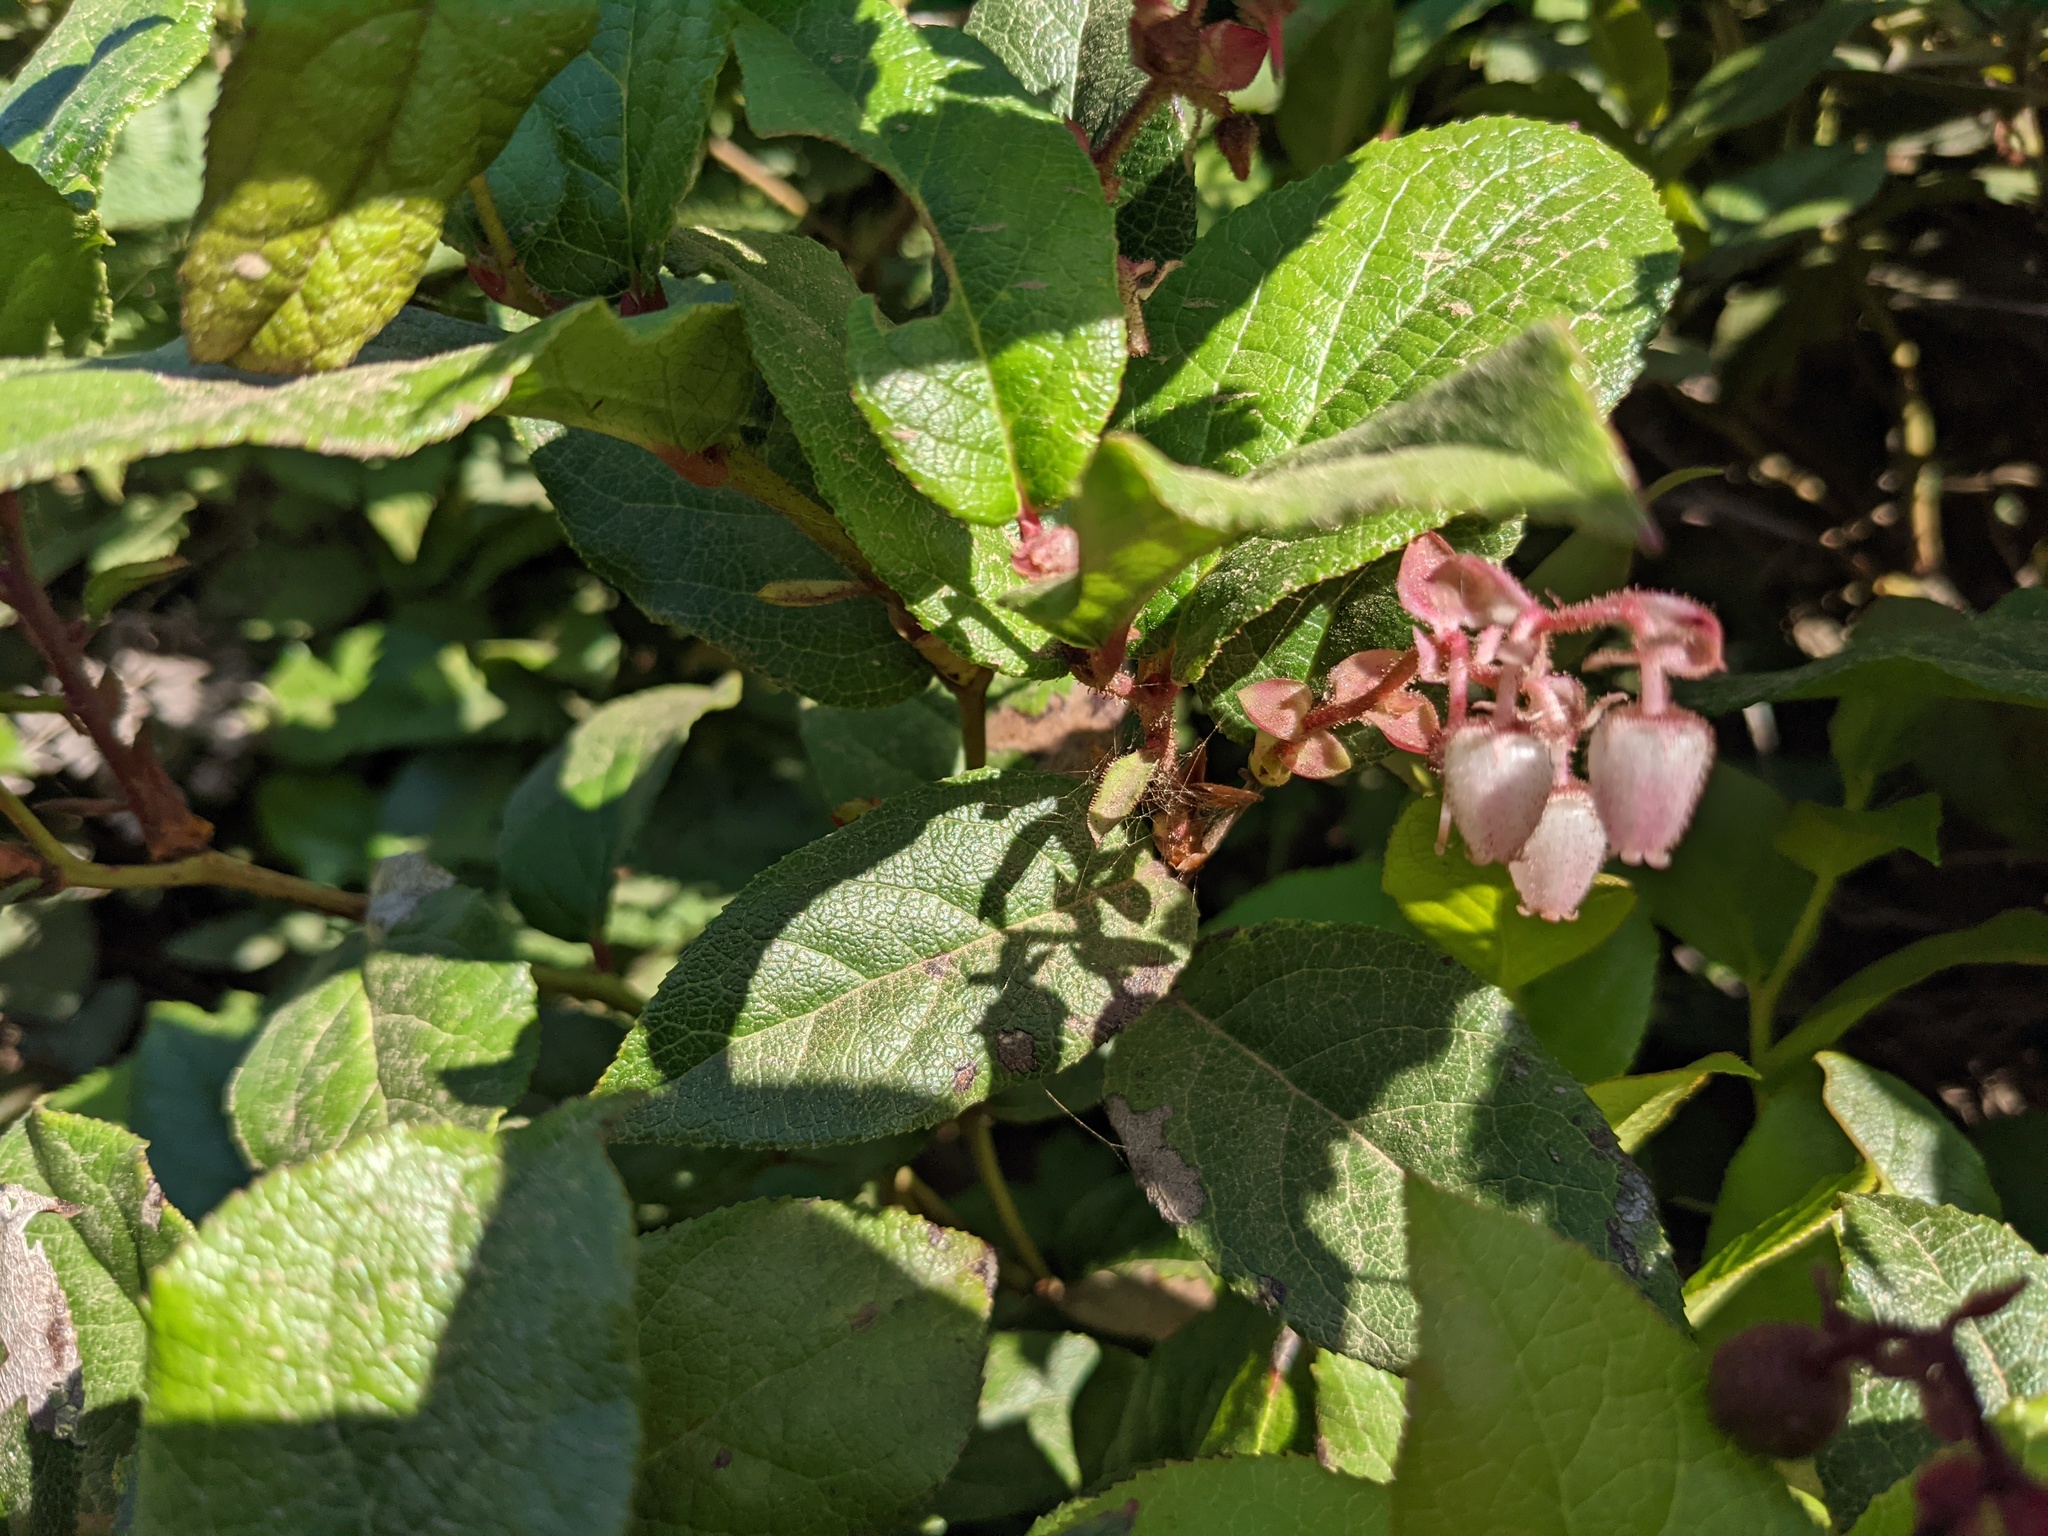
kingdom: Plantae
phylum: Tracheophyta
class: Magnoliopsida
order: Ericales
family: Ericaceae
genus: Gaultheria
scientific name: Gaultheria shallon
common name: Shallon
